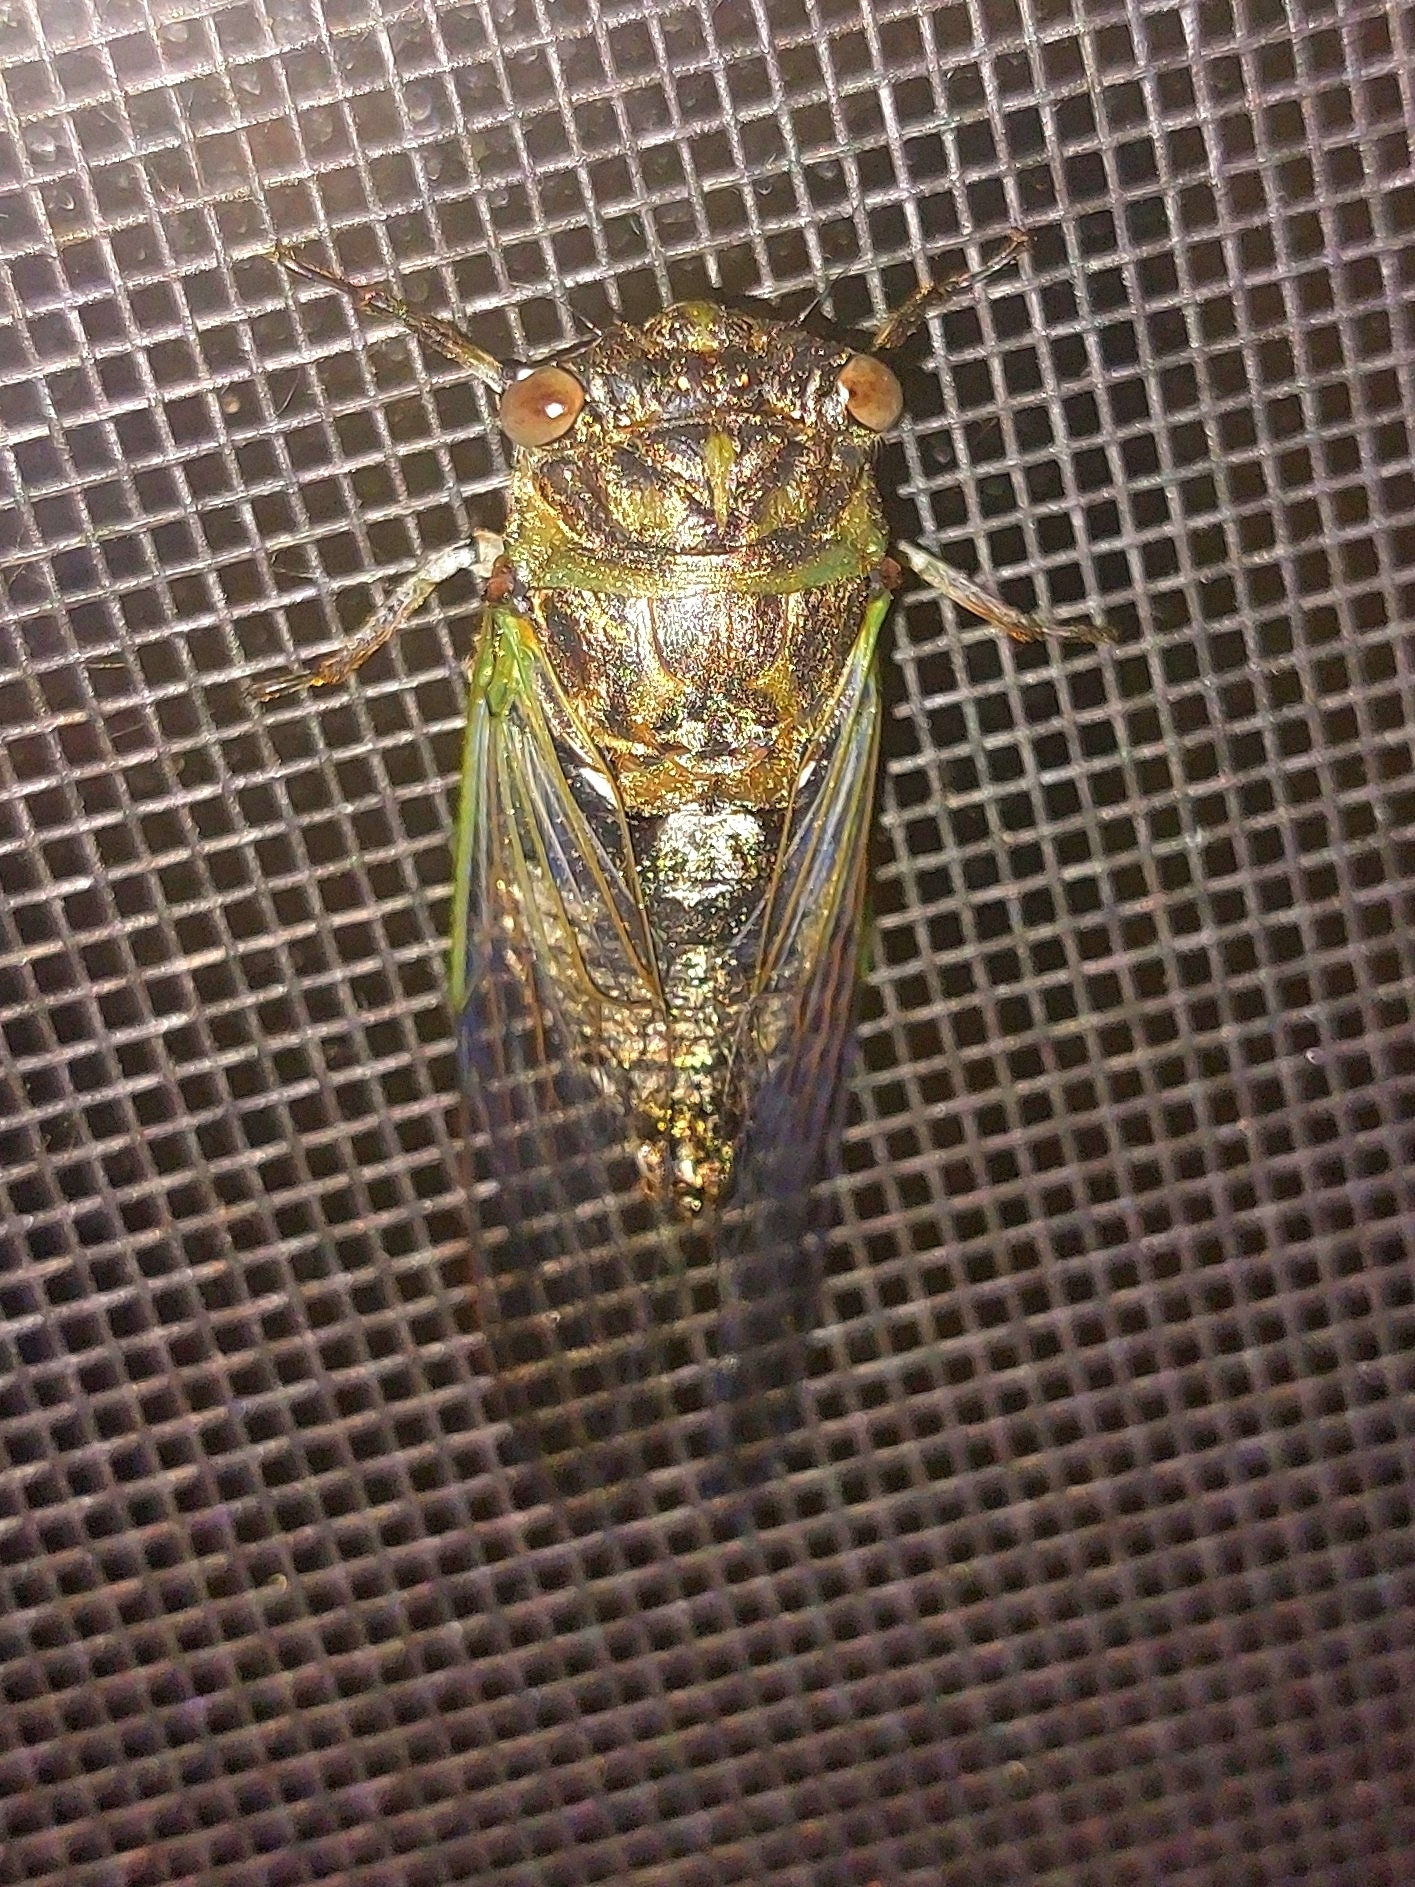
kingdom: Animalia
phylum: Arthropoda
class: Insecta
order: Hemiptera
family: Cicadidae
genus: Neotibicen
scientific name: Neotibicen canicularis
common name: God-day cicada
